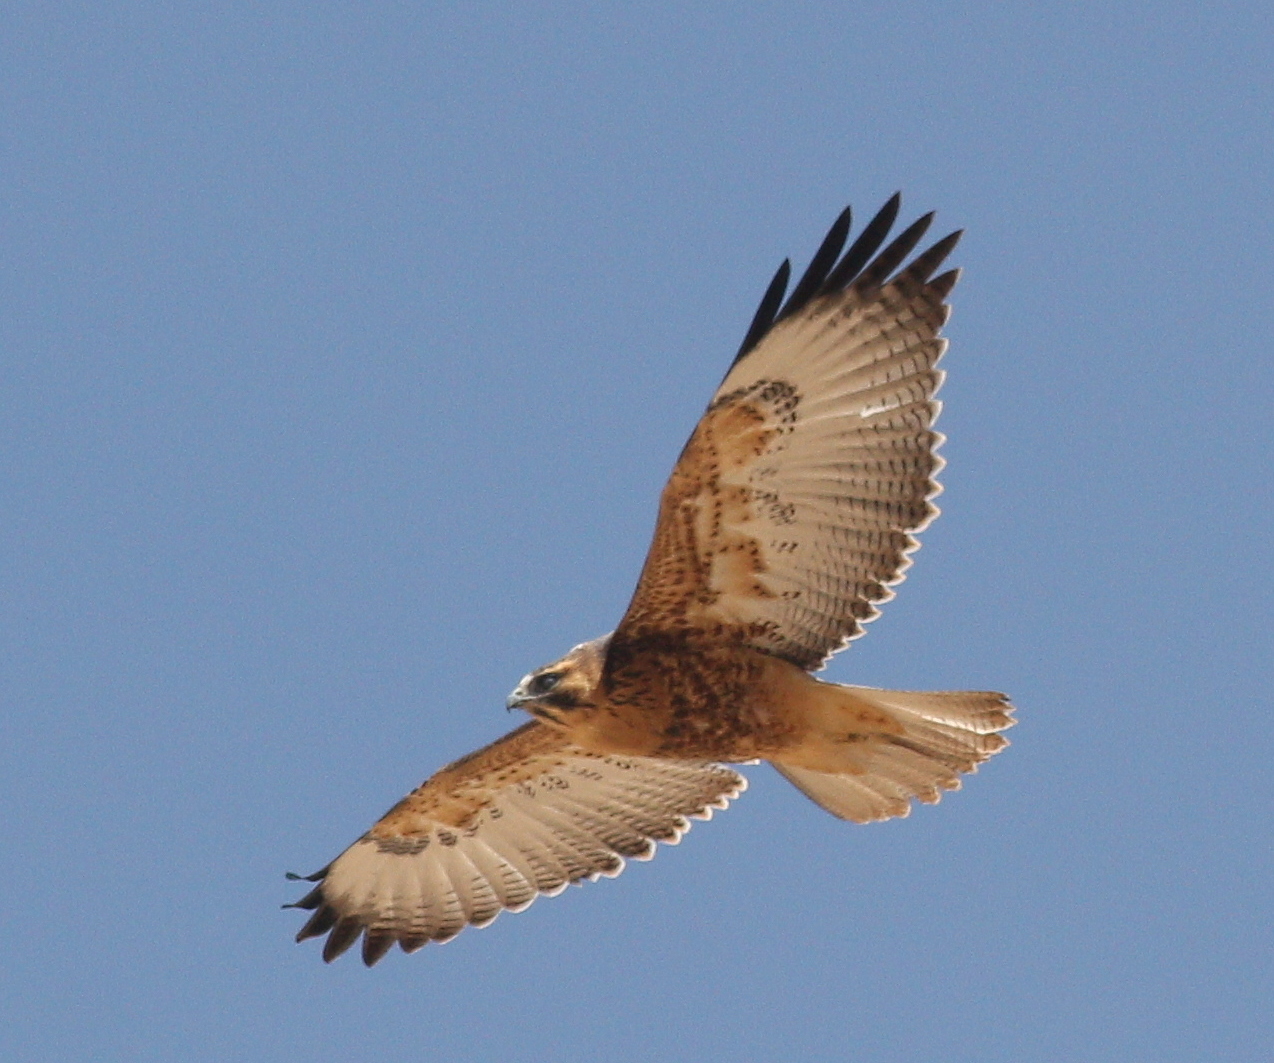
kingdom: Animalia
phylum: Chordata
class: Aves
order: Accipitriformes
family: Accipitridae
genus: Buteo
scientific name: Buteo polyosoma
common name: Variable hawk
